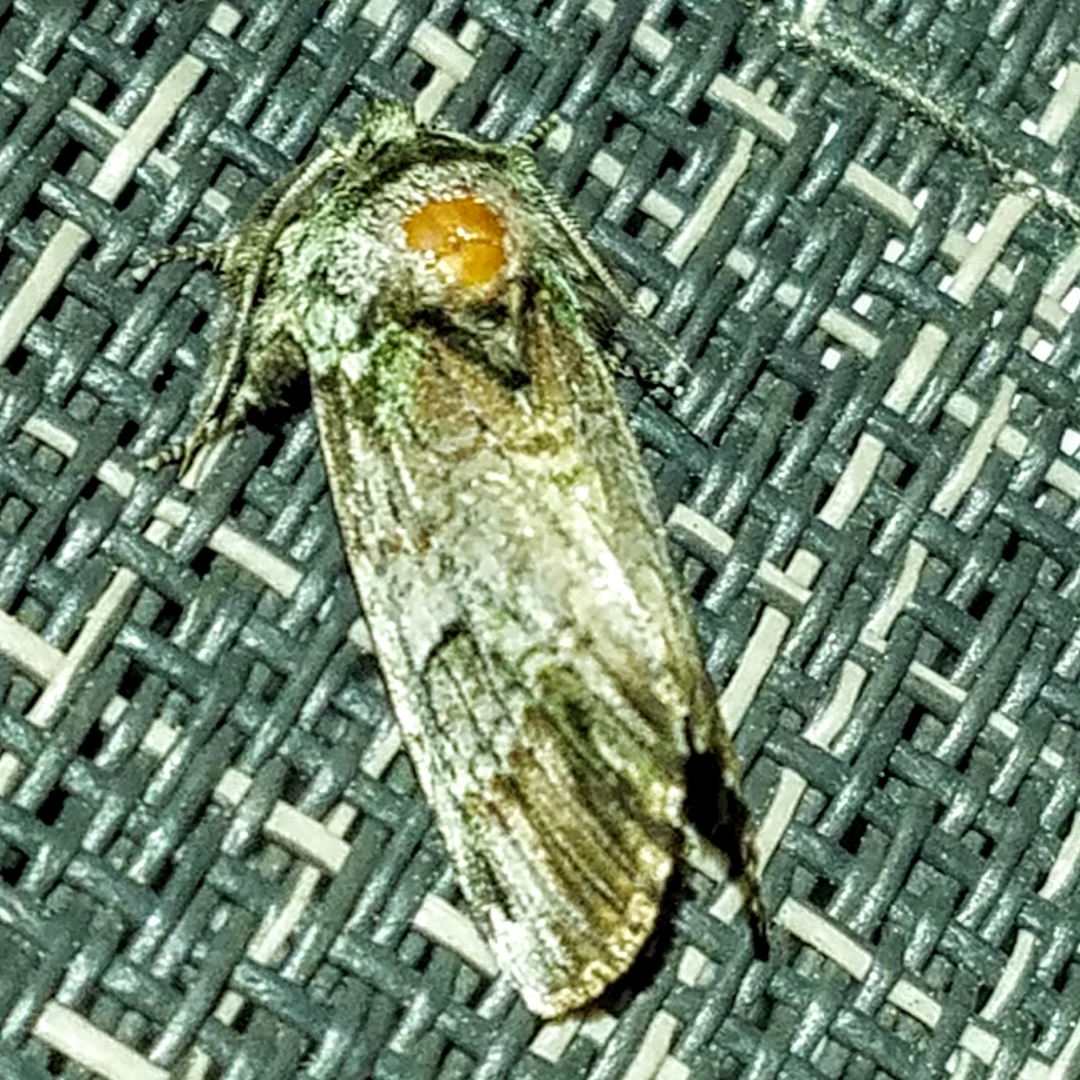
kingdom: Animalia
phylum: Arthropoda
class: Insecta
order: Lepidoptera
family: Notodontidae
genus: Schizura
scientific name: Schizura
